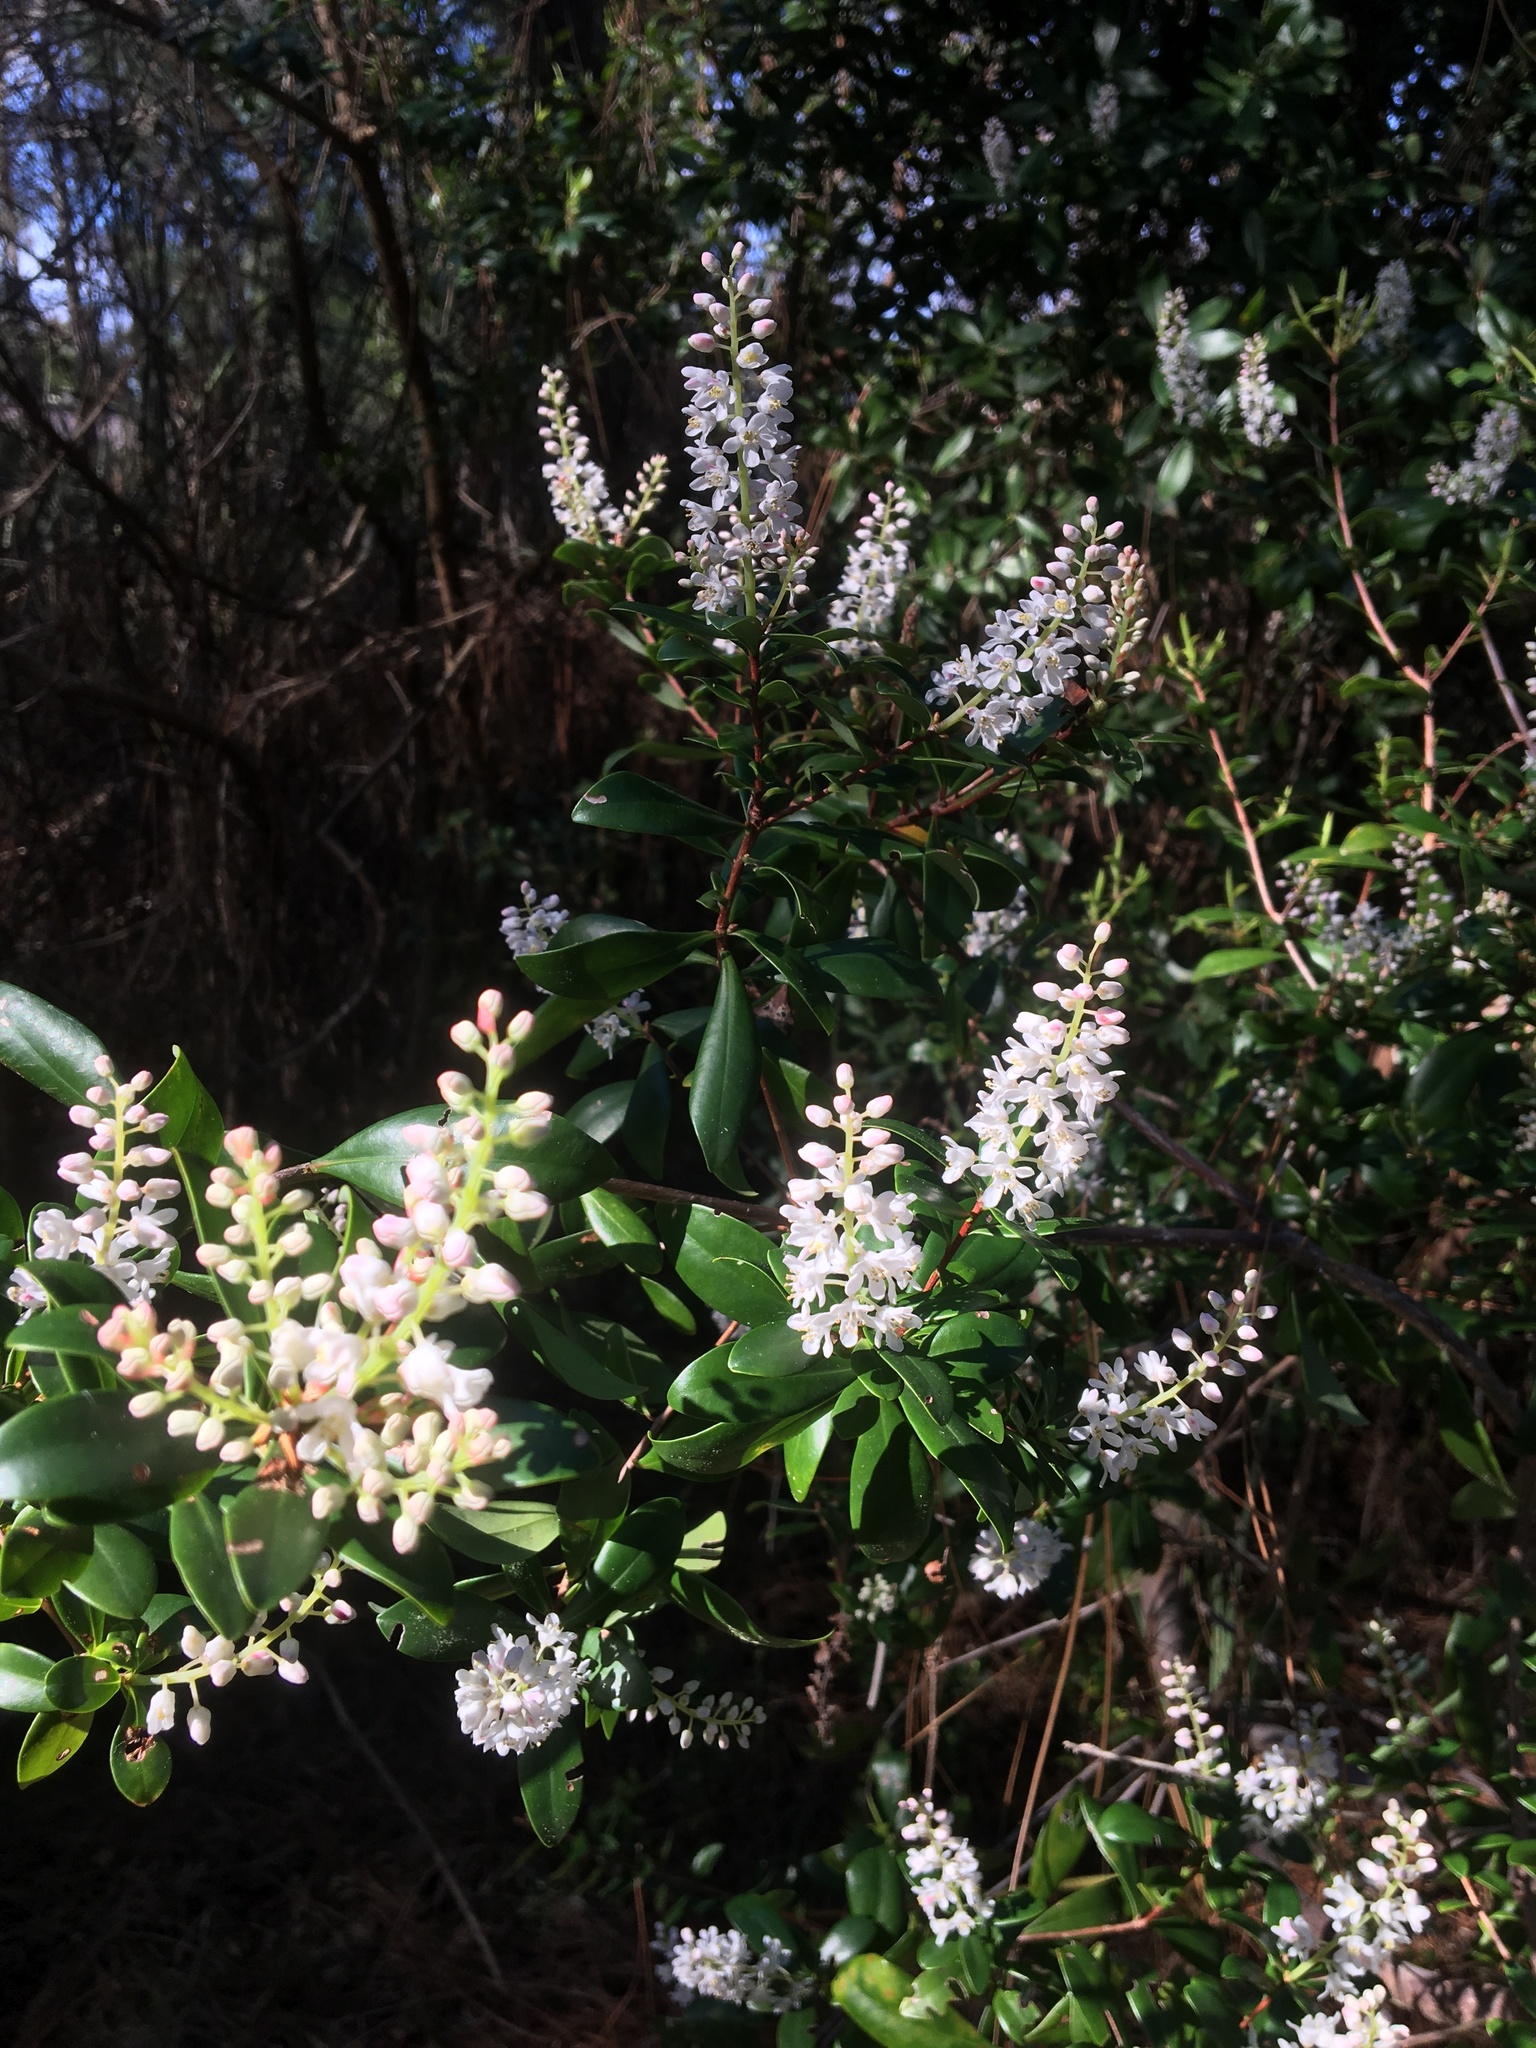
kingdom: Plantae
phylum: Tracheophyta
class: Magnoliopsida
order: Ericales
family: Cyrillaceae
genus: Cliftonia
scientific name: Cliftonia monophylla
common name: Titi
